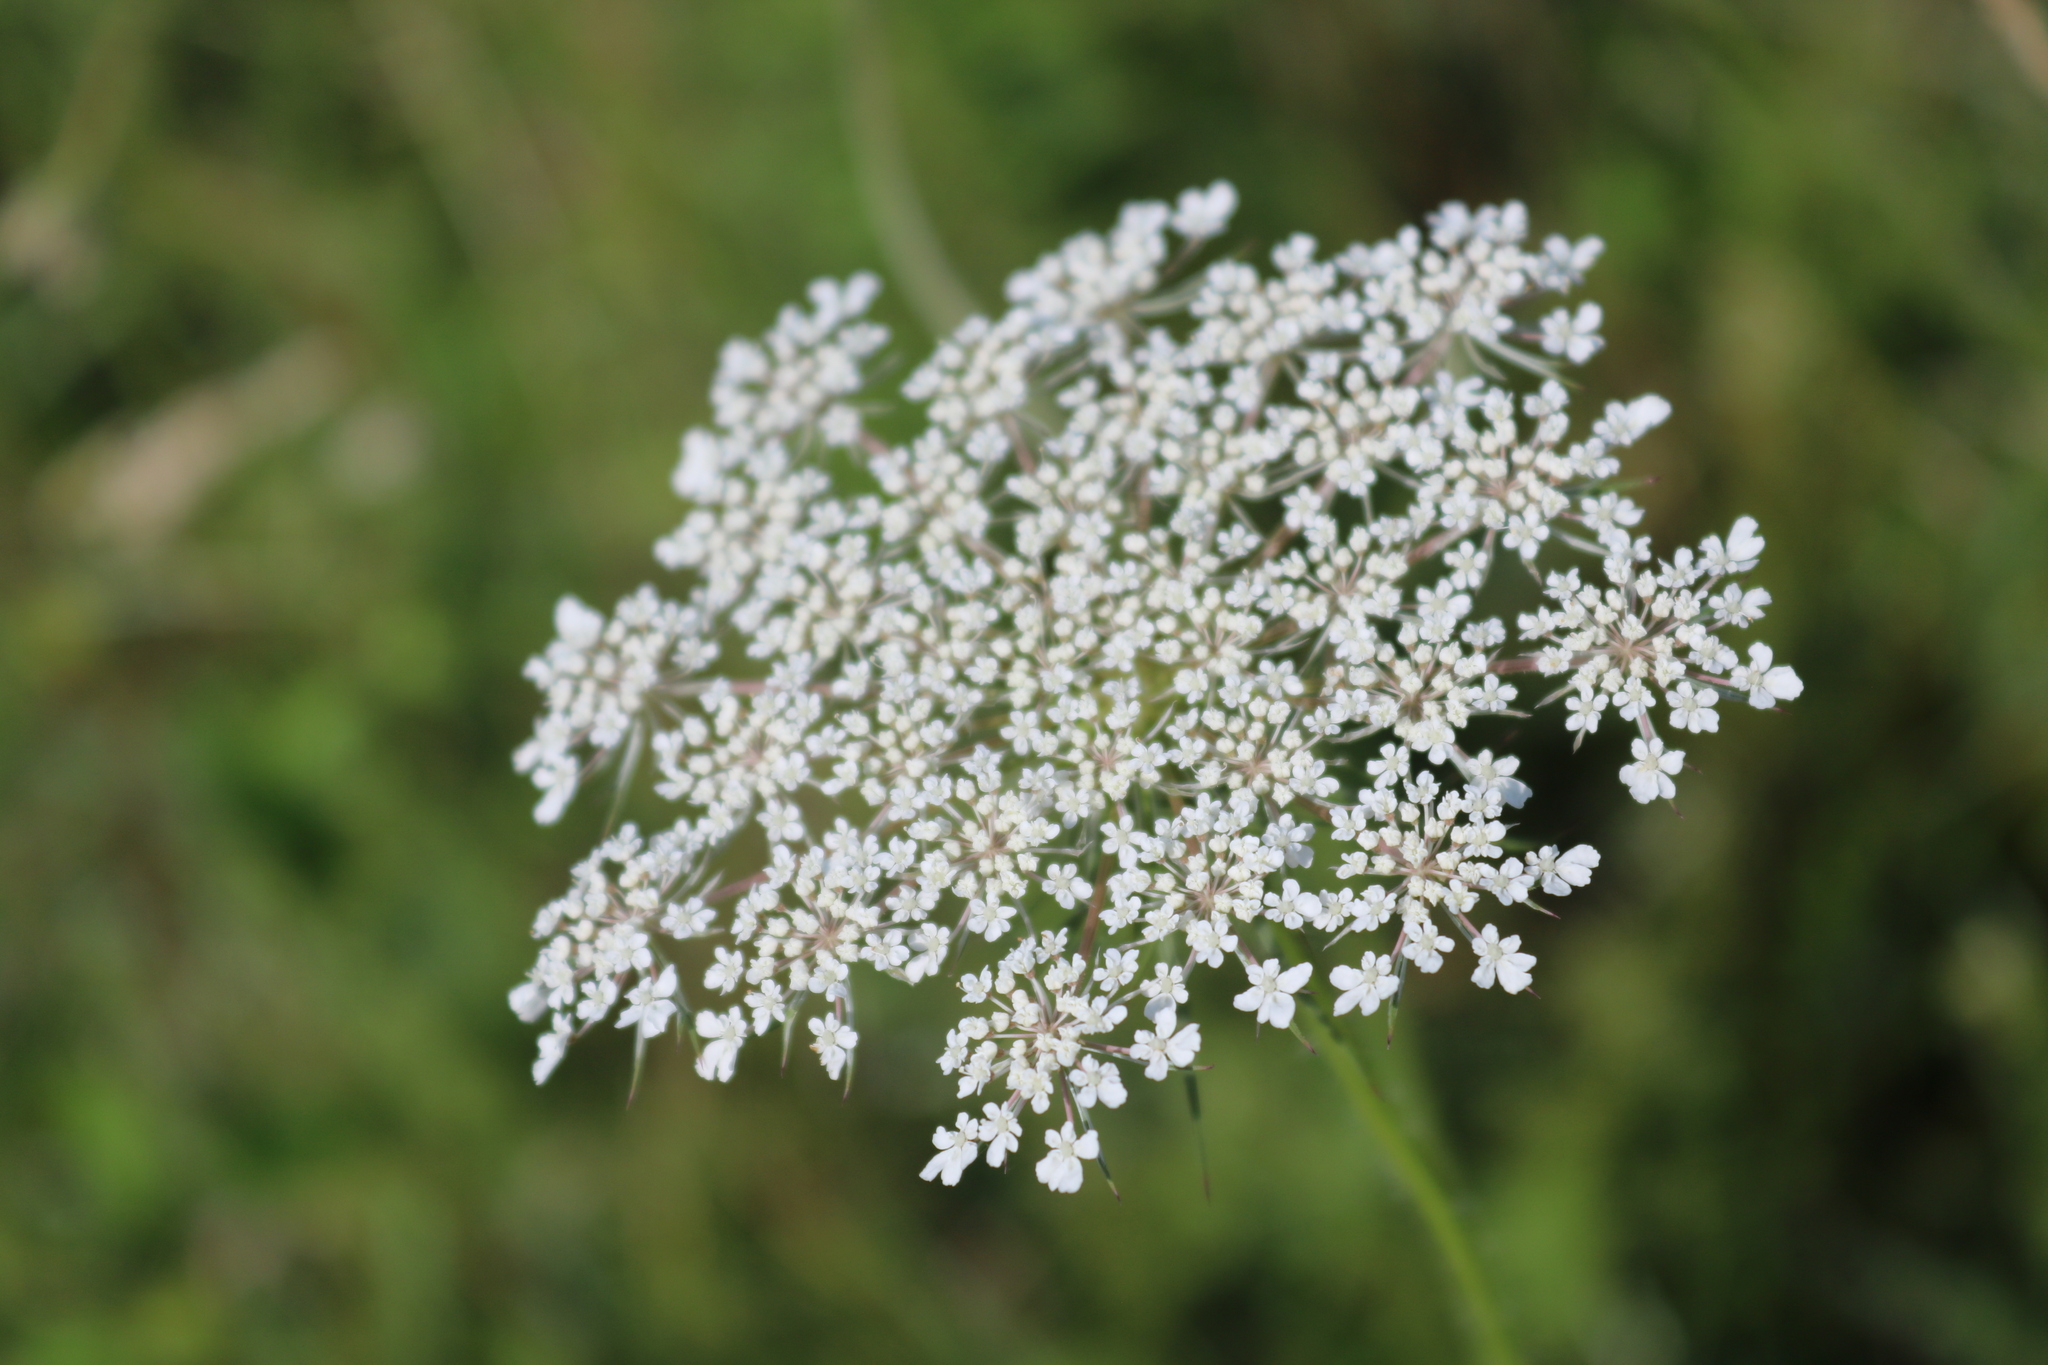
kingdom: Plantae
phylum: Tracheophyta
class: Magnoliopsida
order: Apiales
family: Apiaceae
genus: Daucus
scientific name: Daucus carota
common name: Wild carrot
